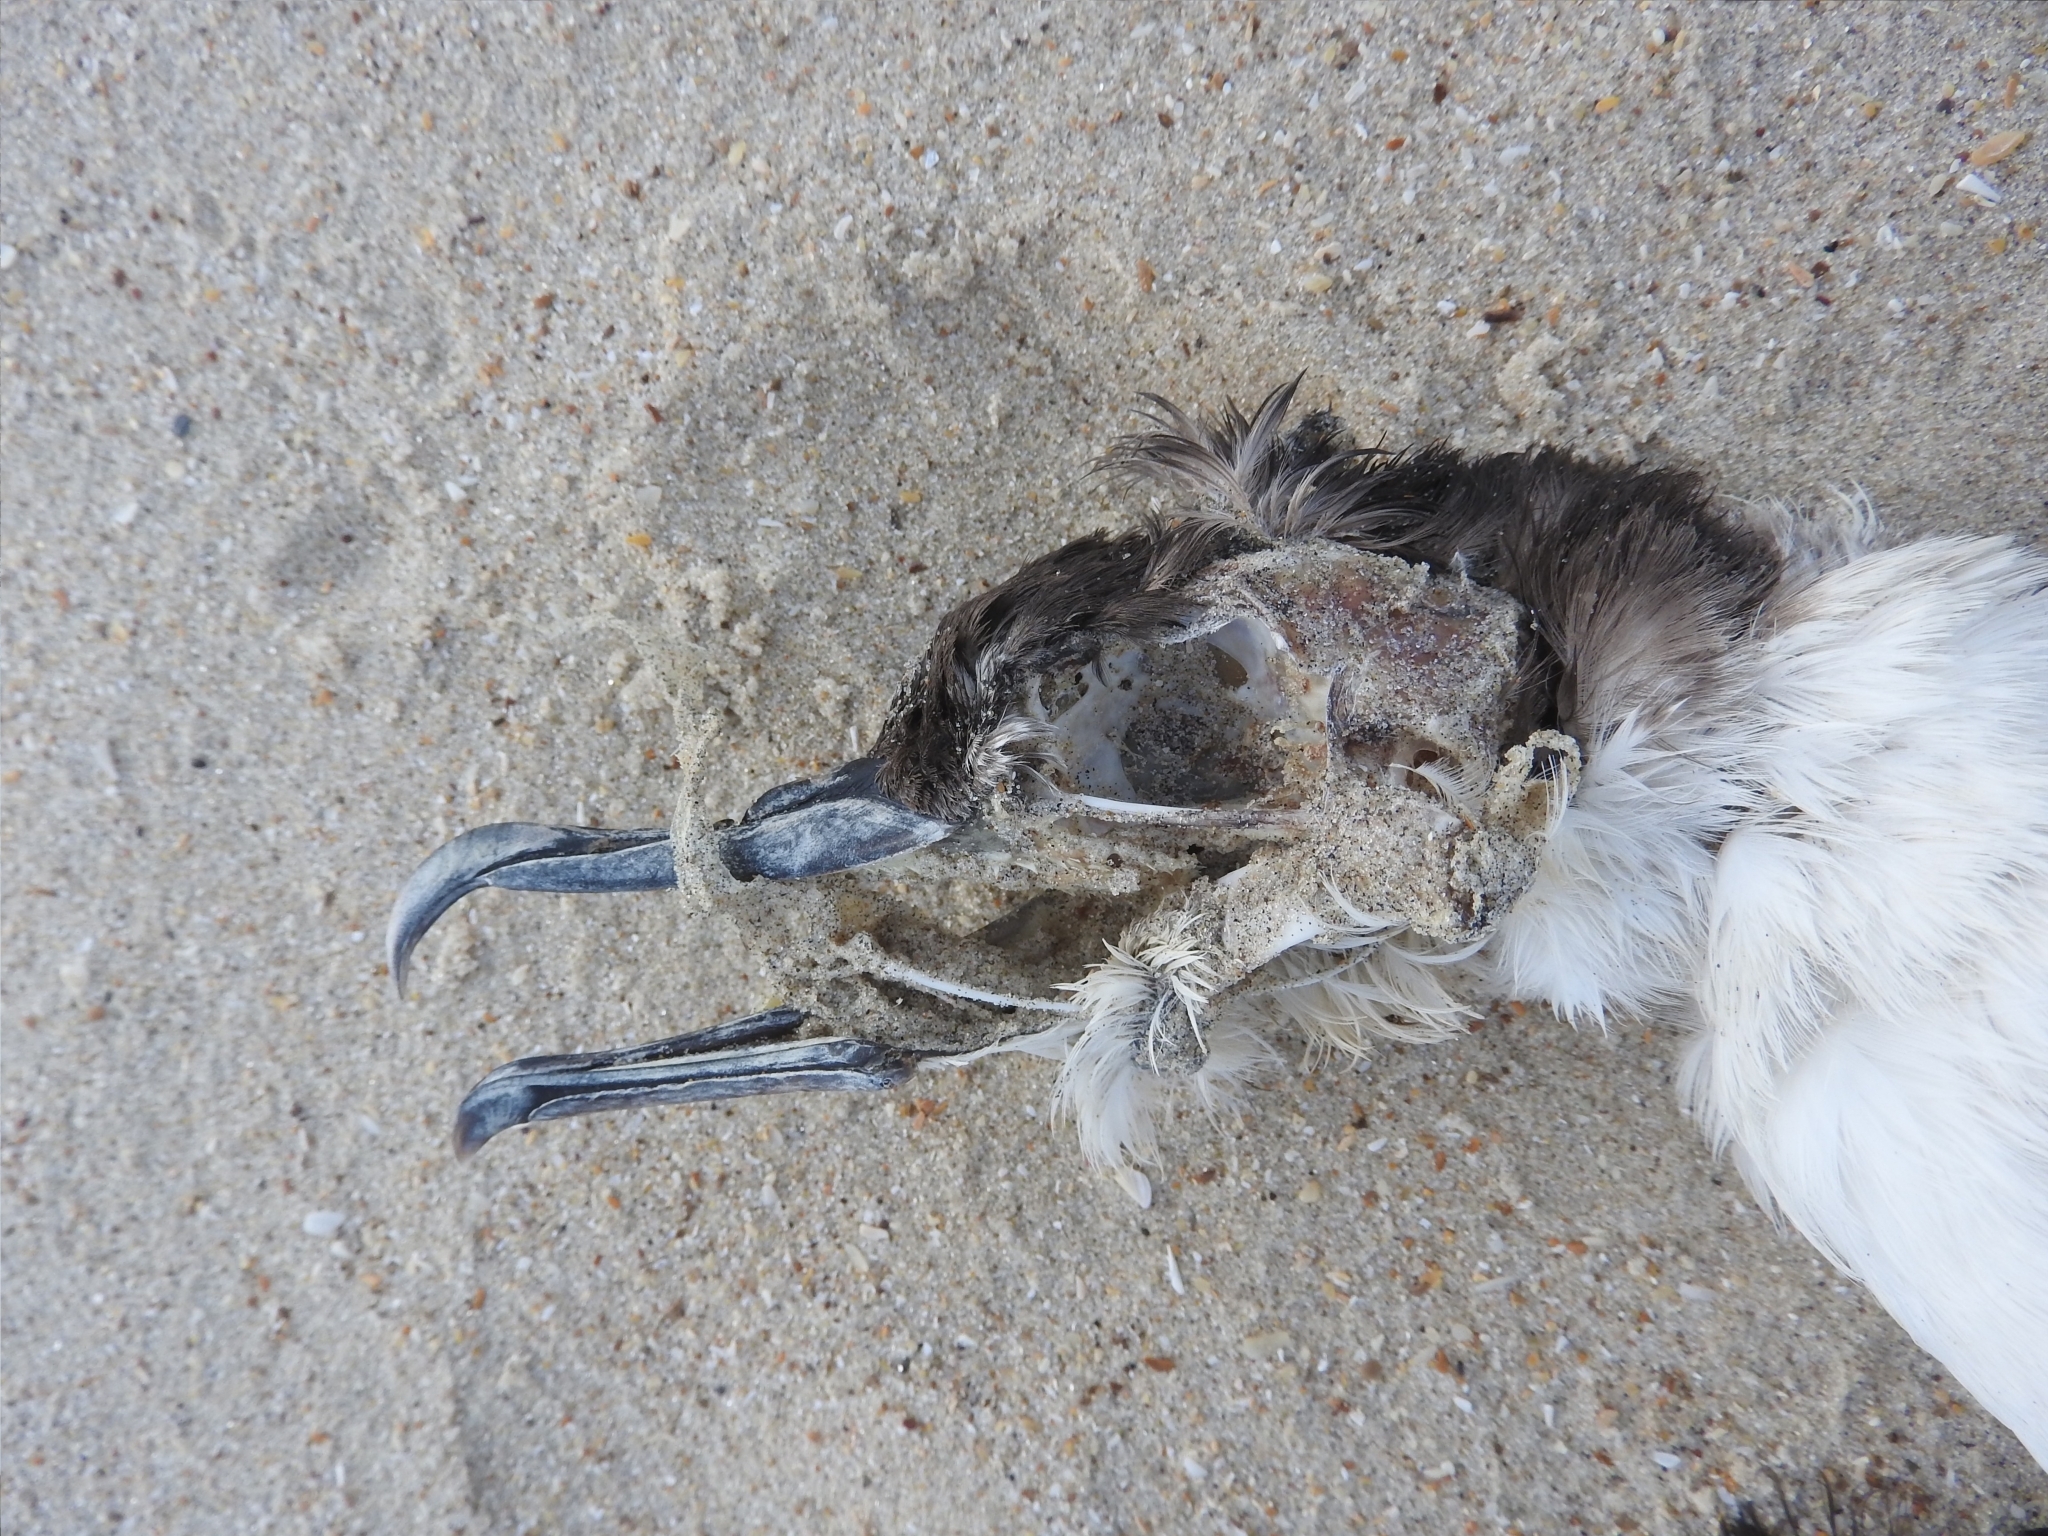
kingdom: Animalia
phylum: Chordata
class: Aves
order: Procellariiformes
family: Procellariidae
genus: Puffinus
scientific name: Puffinus puffinus
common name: Manx shearwater
